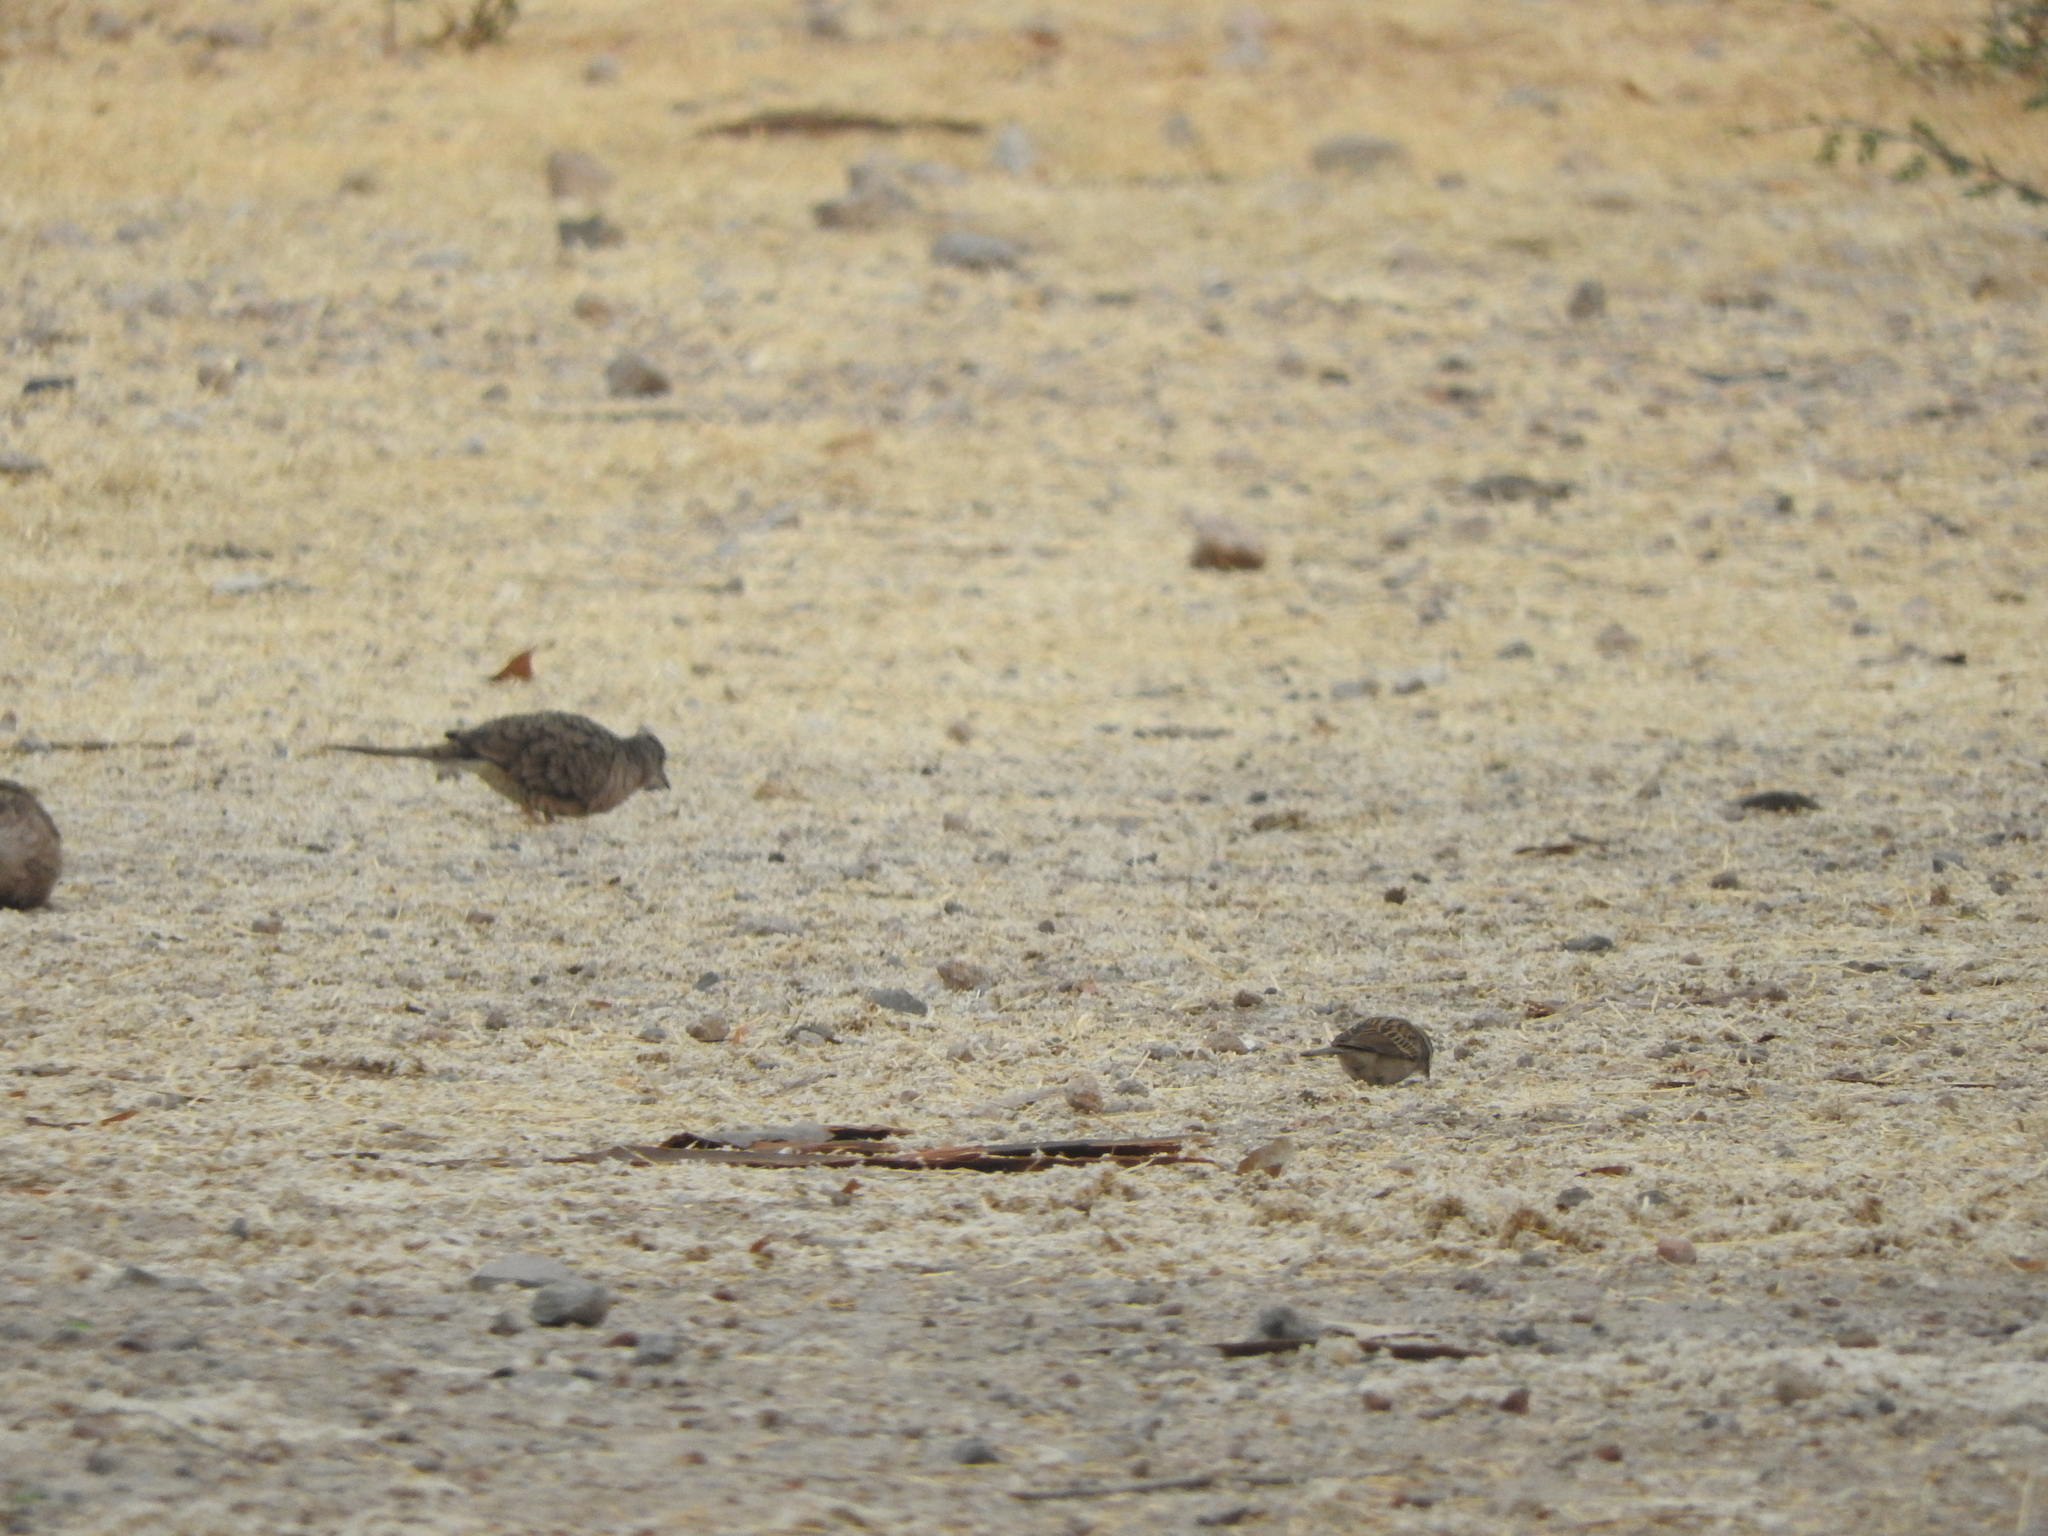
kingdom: Animalia
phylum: Chordata
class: Aves
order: Columbiformes
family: Columbidae
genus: Columbina
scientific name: Columbina inca
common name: Inca dove
